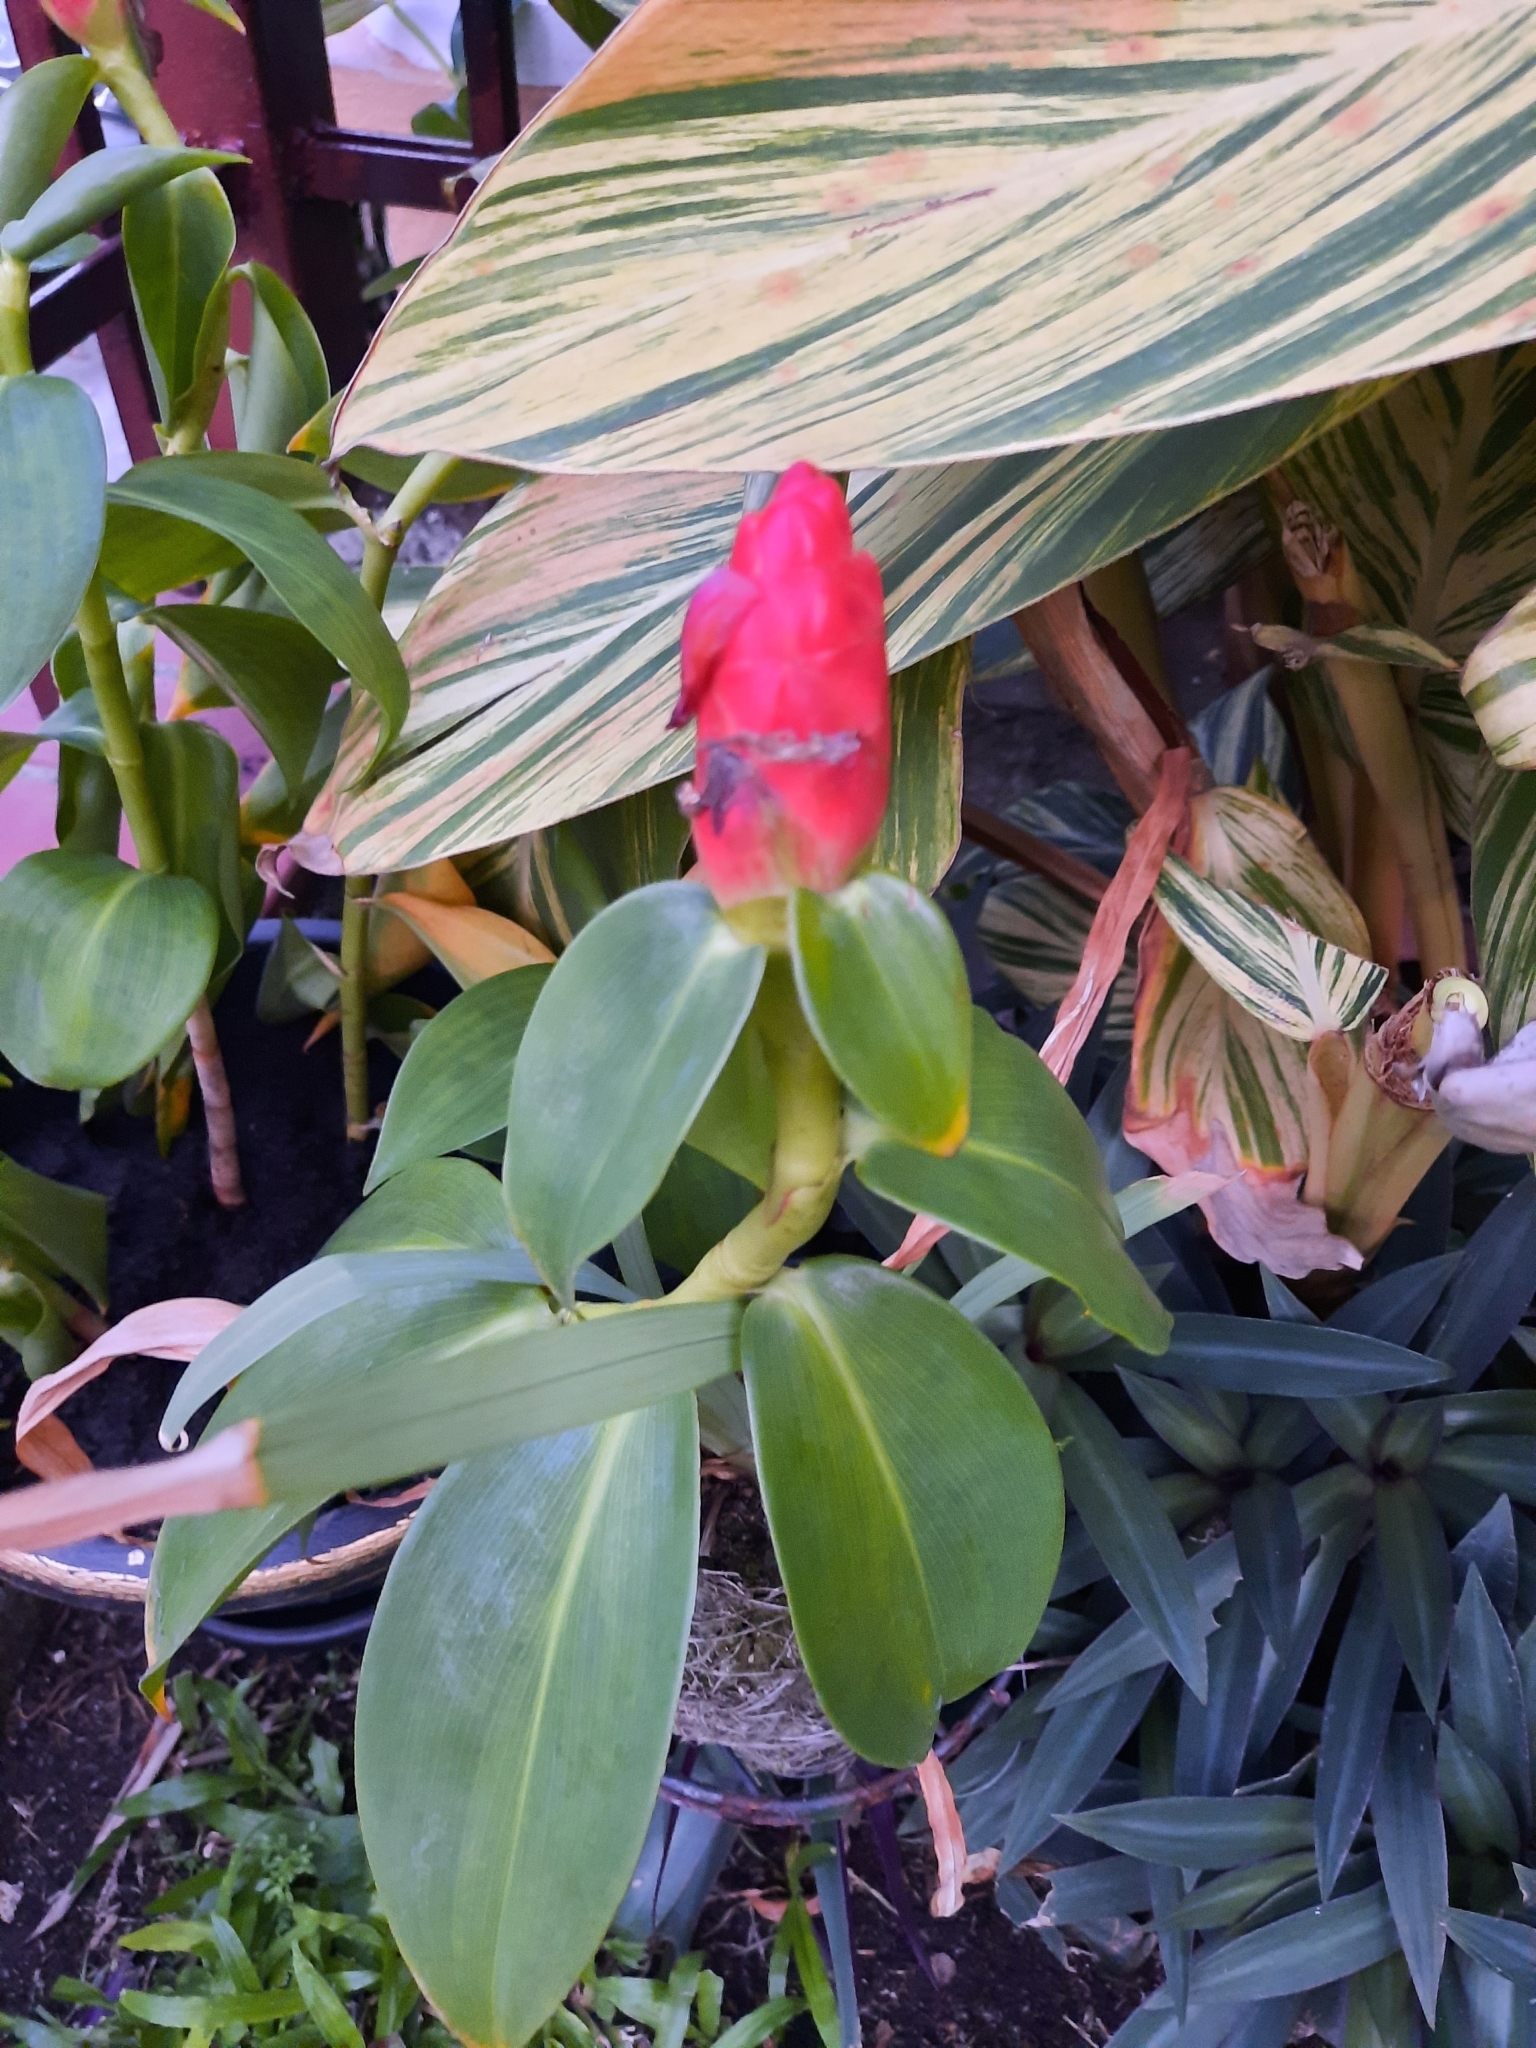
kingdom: Plantae
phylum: Tracheophyta
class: Liliopsida
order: Zingiberales
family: Costaceae
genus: Costus
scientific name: Costus woodsonii
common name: Scarlet spiral-ginger
